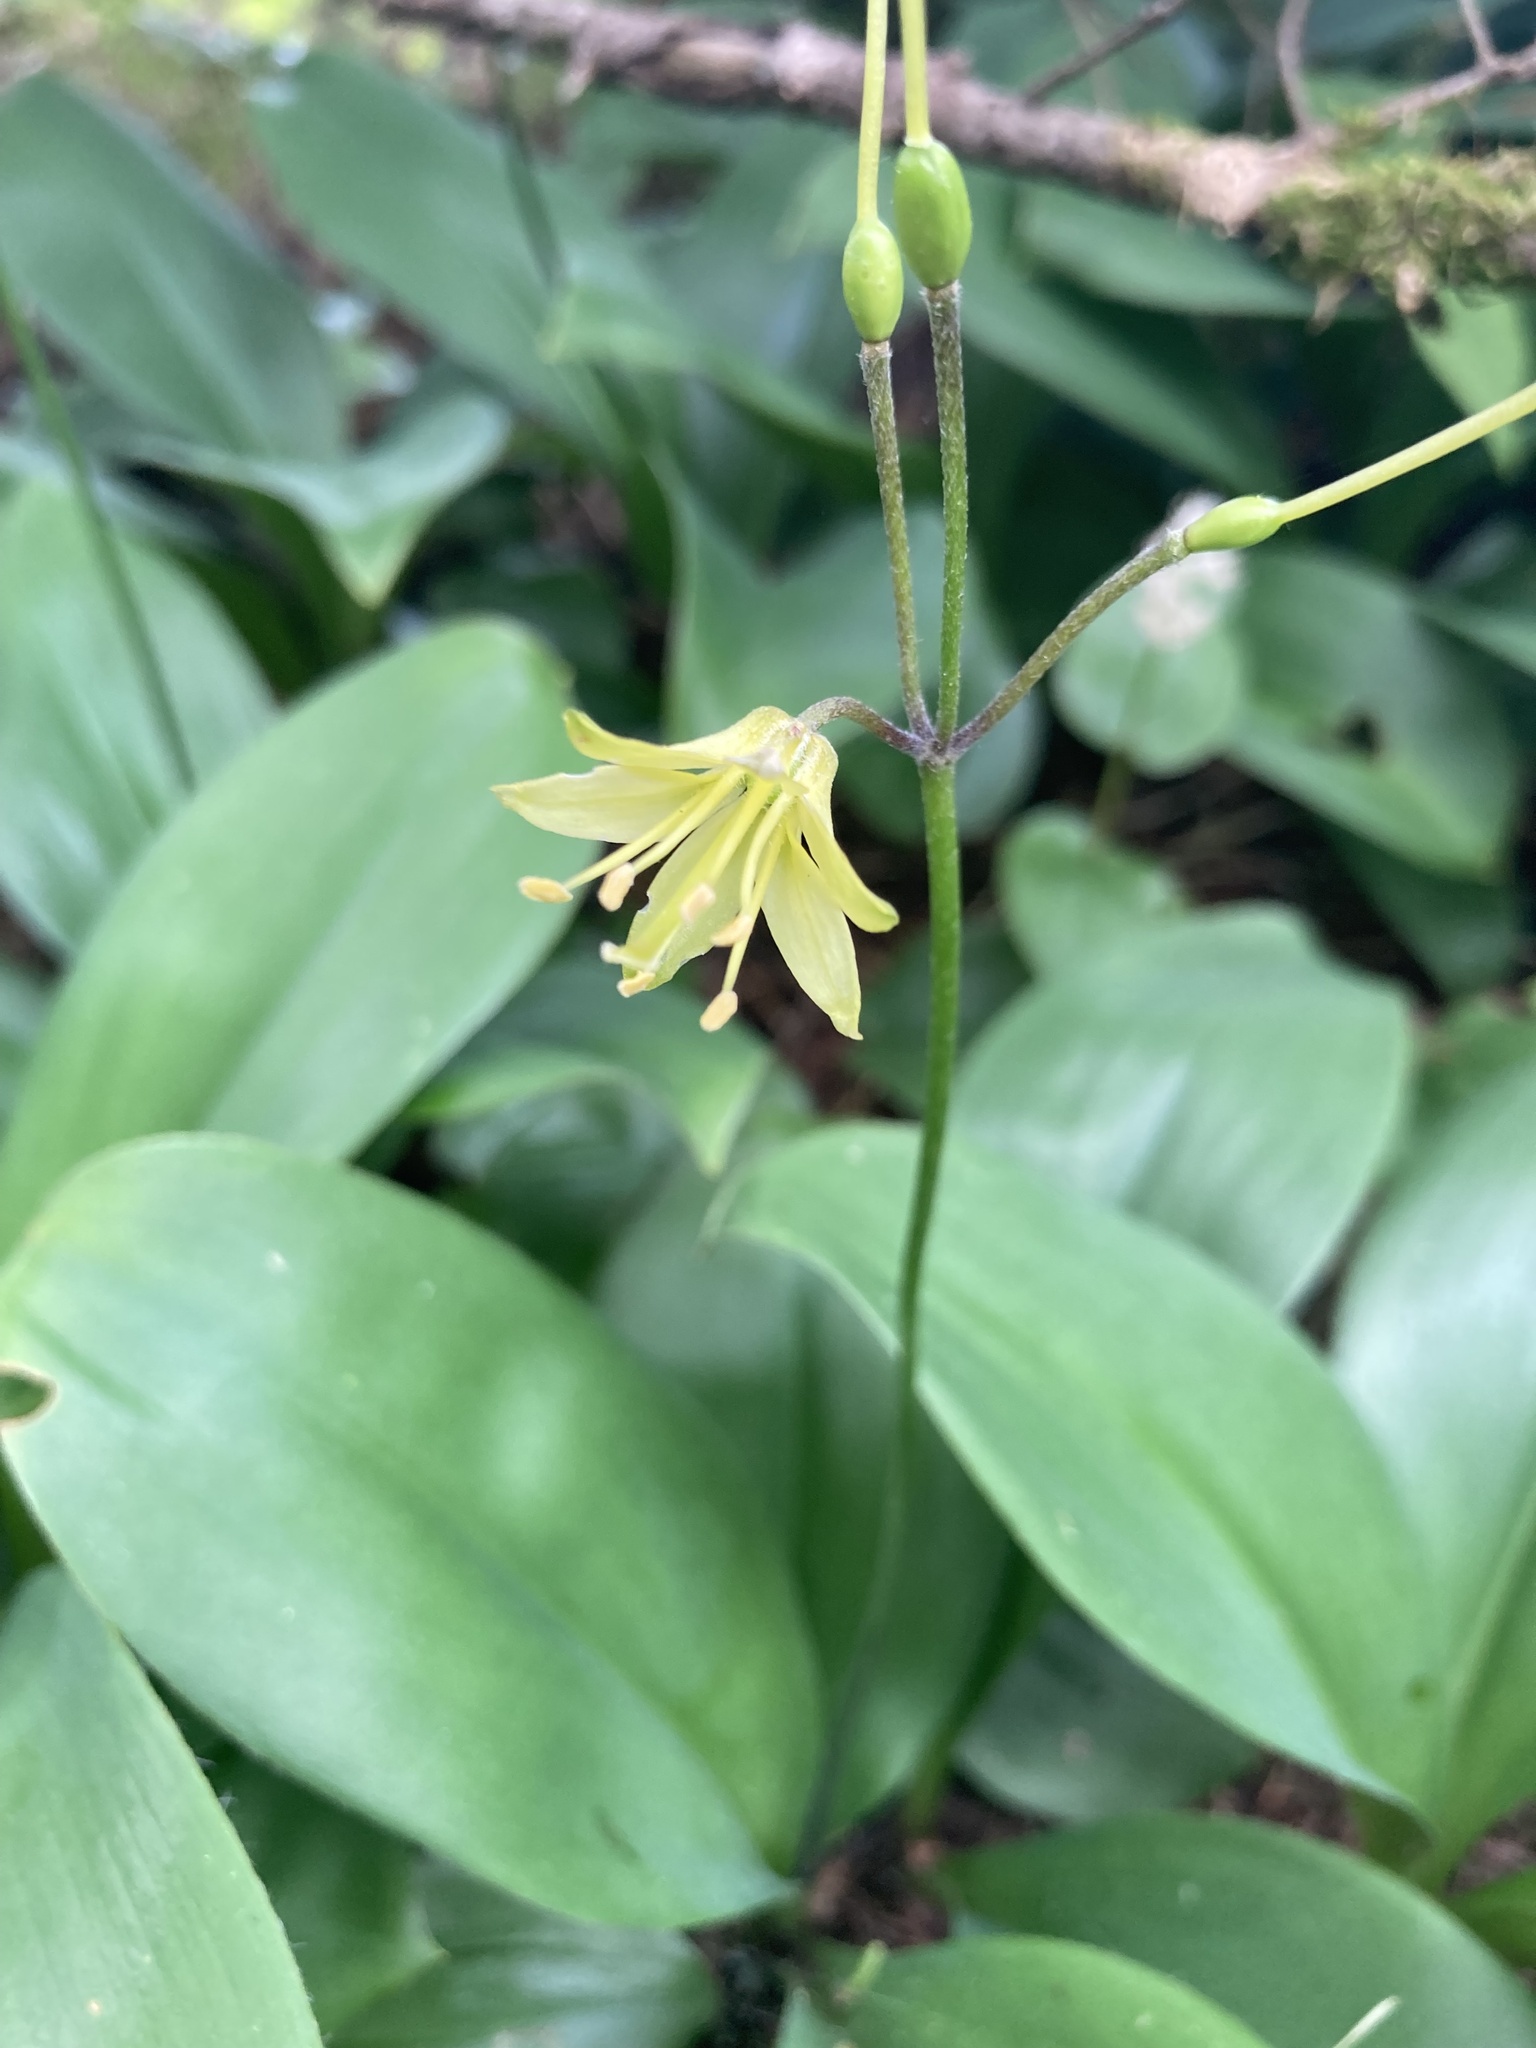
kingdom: Plantae
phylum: Tracheophyta
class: Liliopsida
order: Liliales
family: Liliaceae
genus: Clintonia
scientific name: Clintonia borealis
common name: Yellow clintonia
